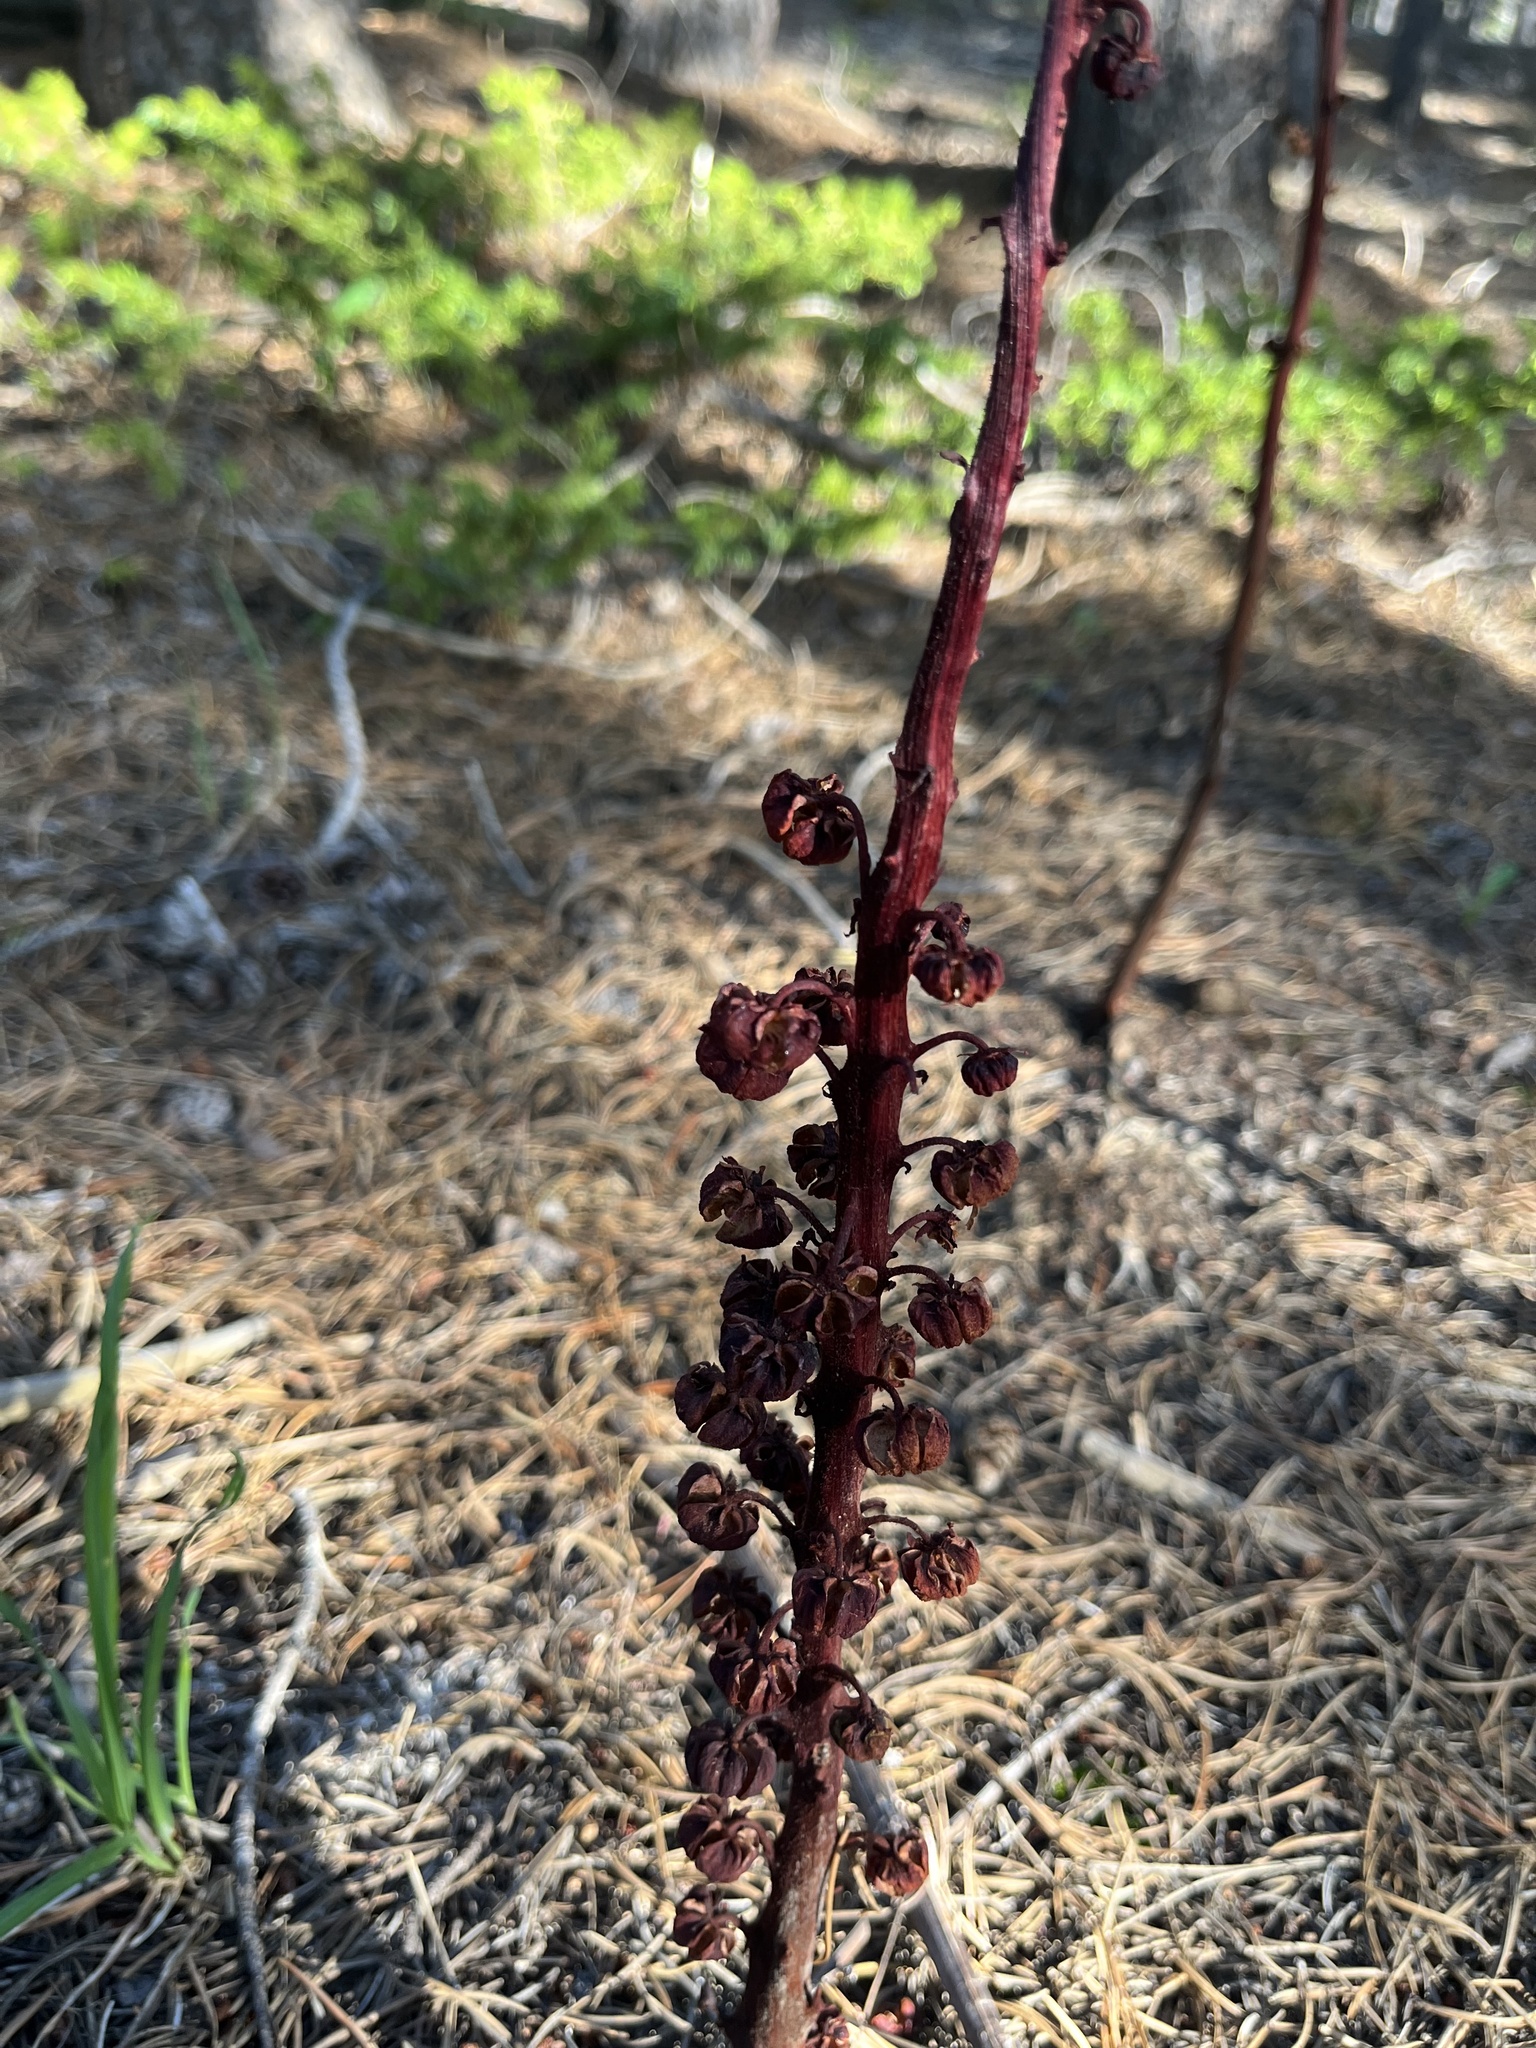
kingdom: Plantae
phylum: Tracheophyta
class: Magnoliopsida
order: Ericales
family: Ericaceae
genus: Pterospora
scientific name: Pterospora andromedea
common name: Giant bird's-nest
